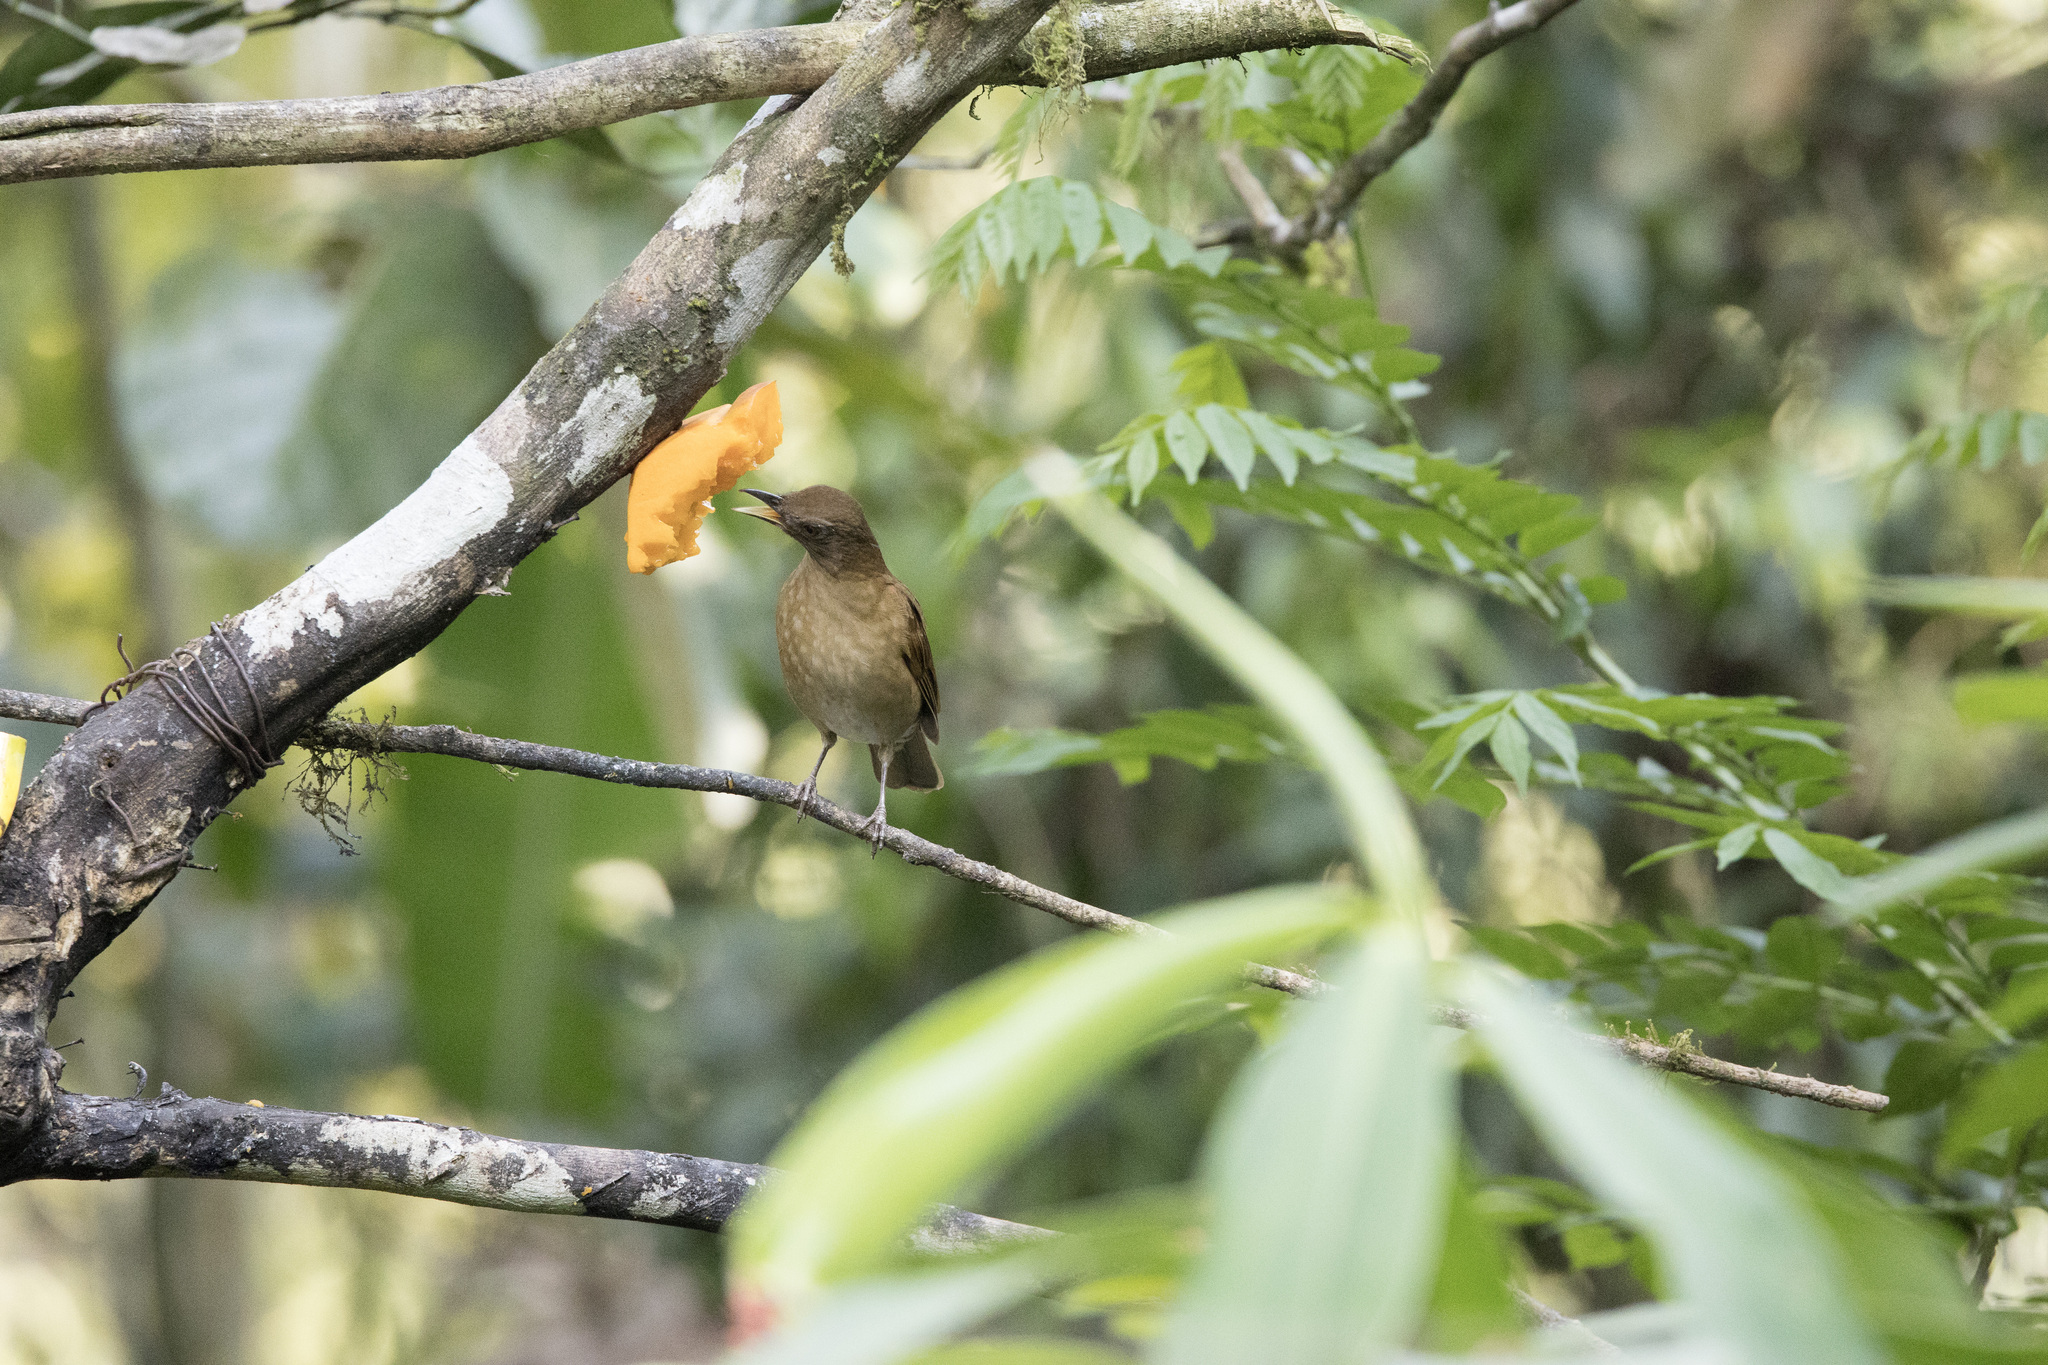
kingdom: Animalia
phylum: Chordata
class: Aves
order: Passeriformes
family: Turdidae
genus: Turdus
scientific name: Turdus ignobilis
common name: Black-billed thrush
